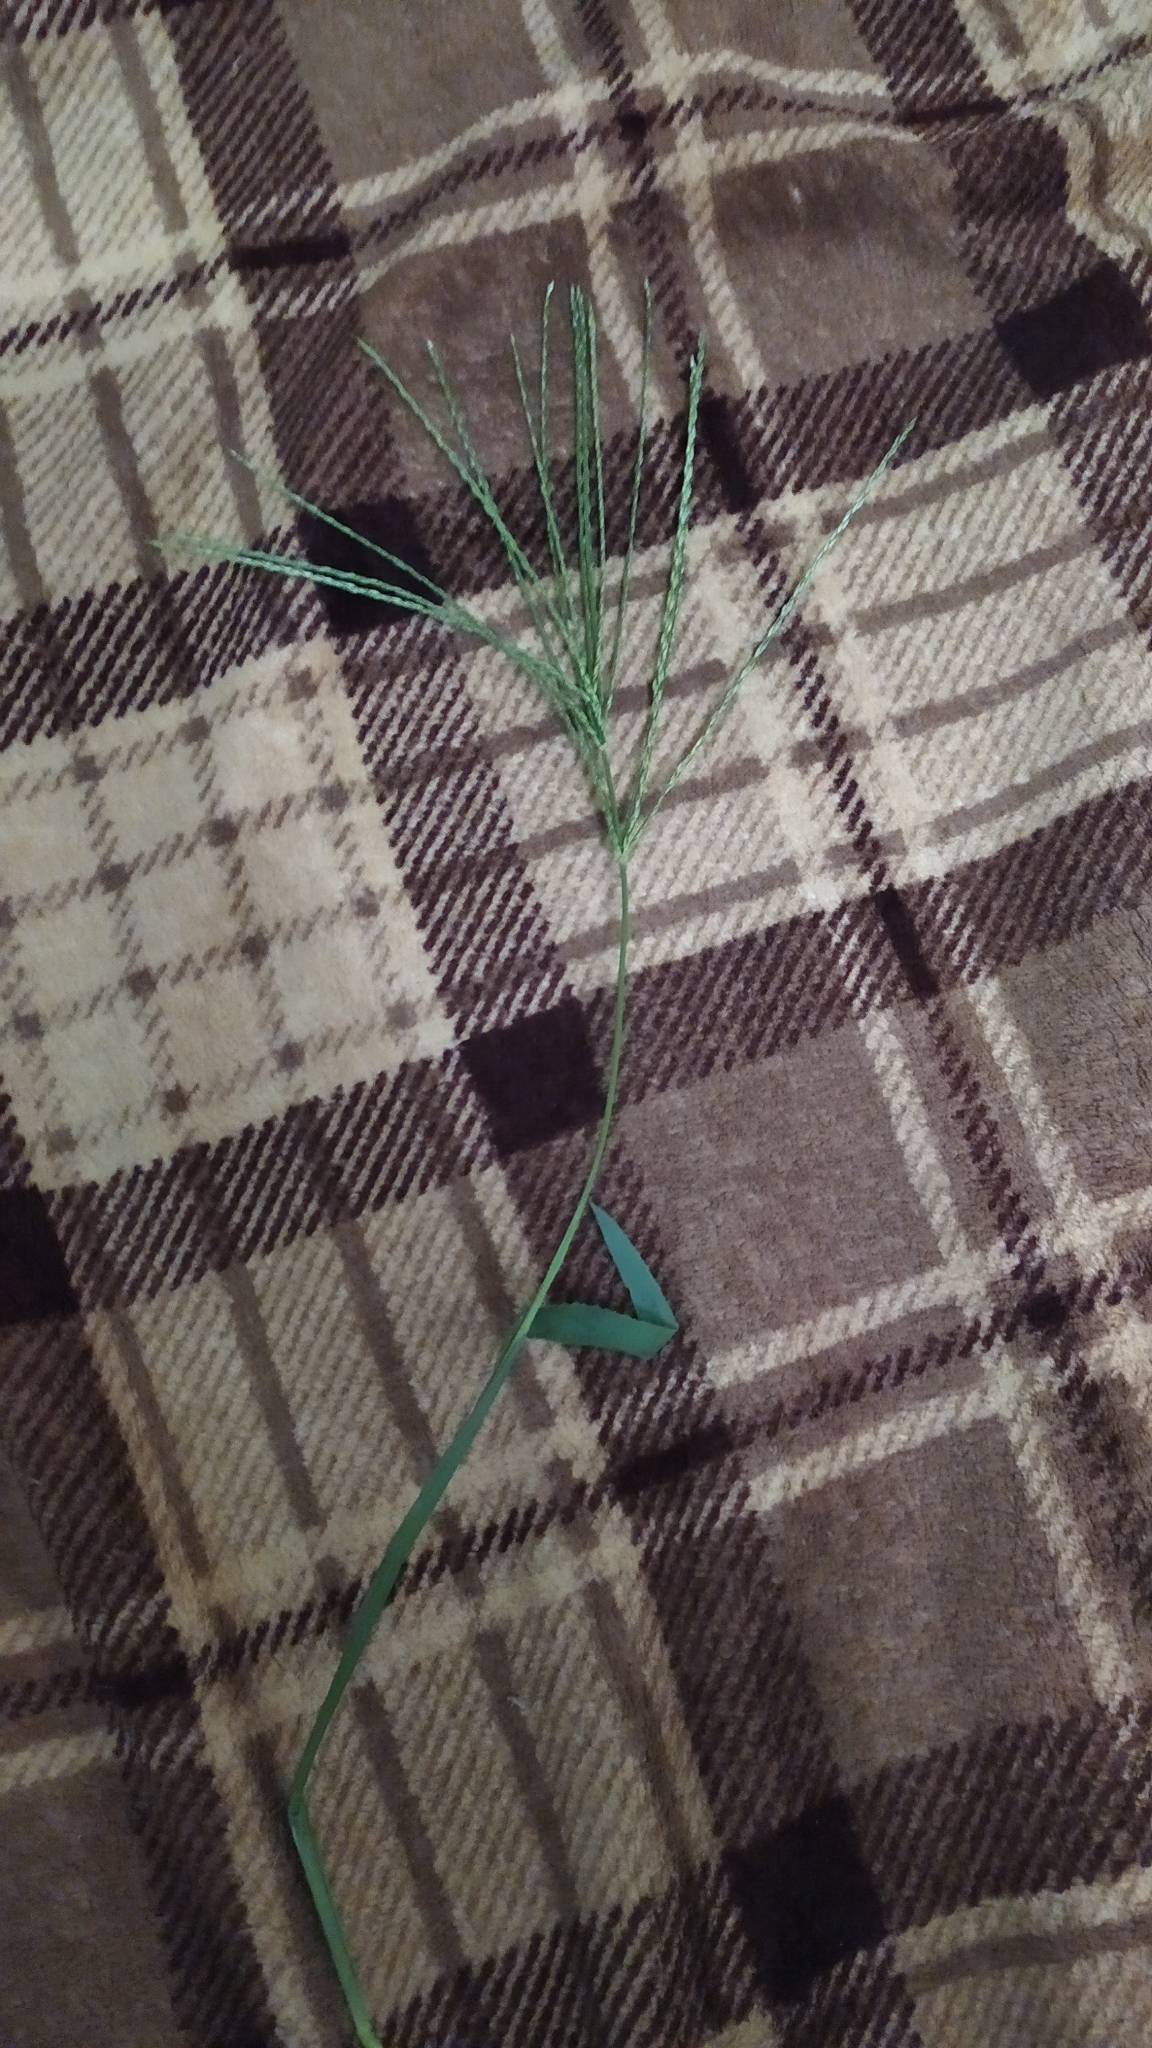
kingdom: Plantae
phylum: Tracheophyta
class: Liliopsida
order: Poales
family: Poaceae
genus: Digitaria
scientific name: Digitaria sanguinalis
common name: Hairy crabgrass
